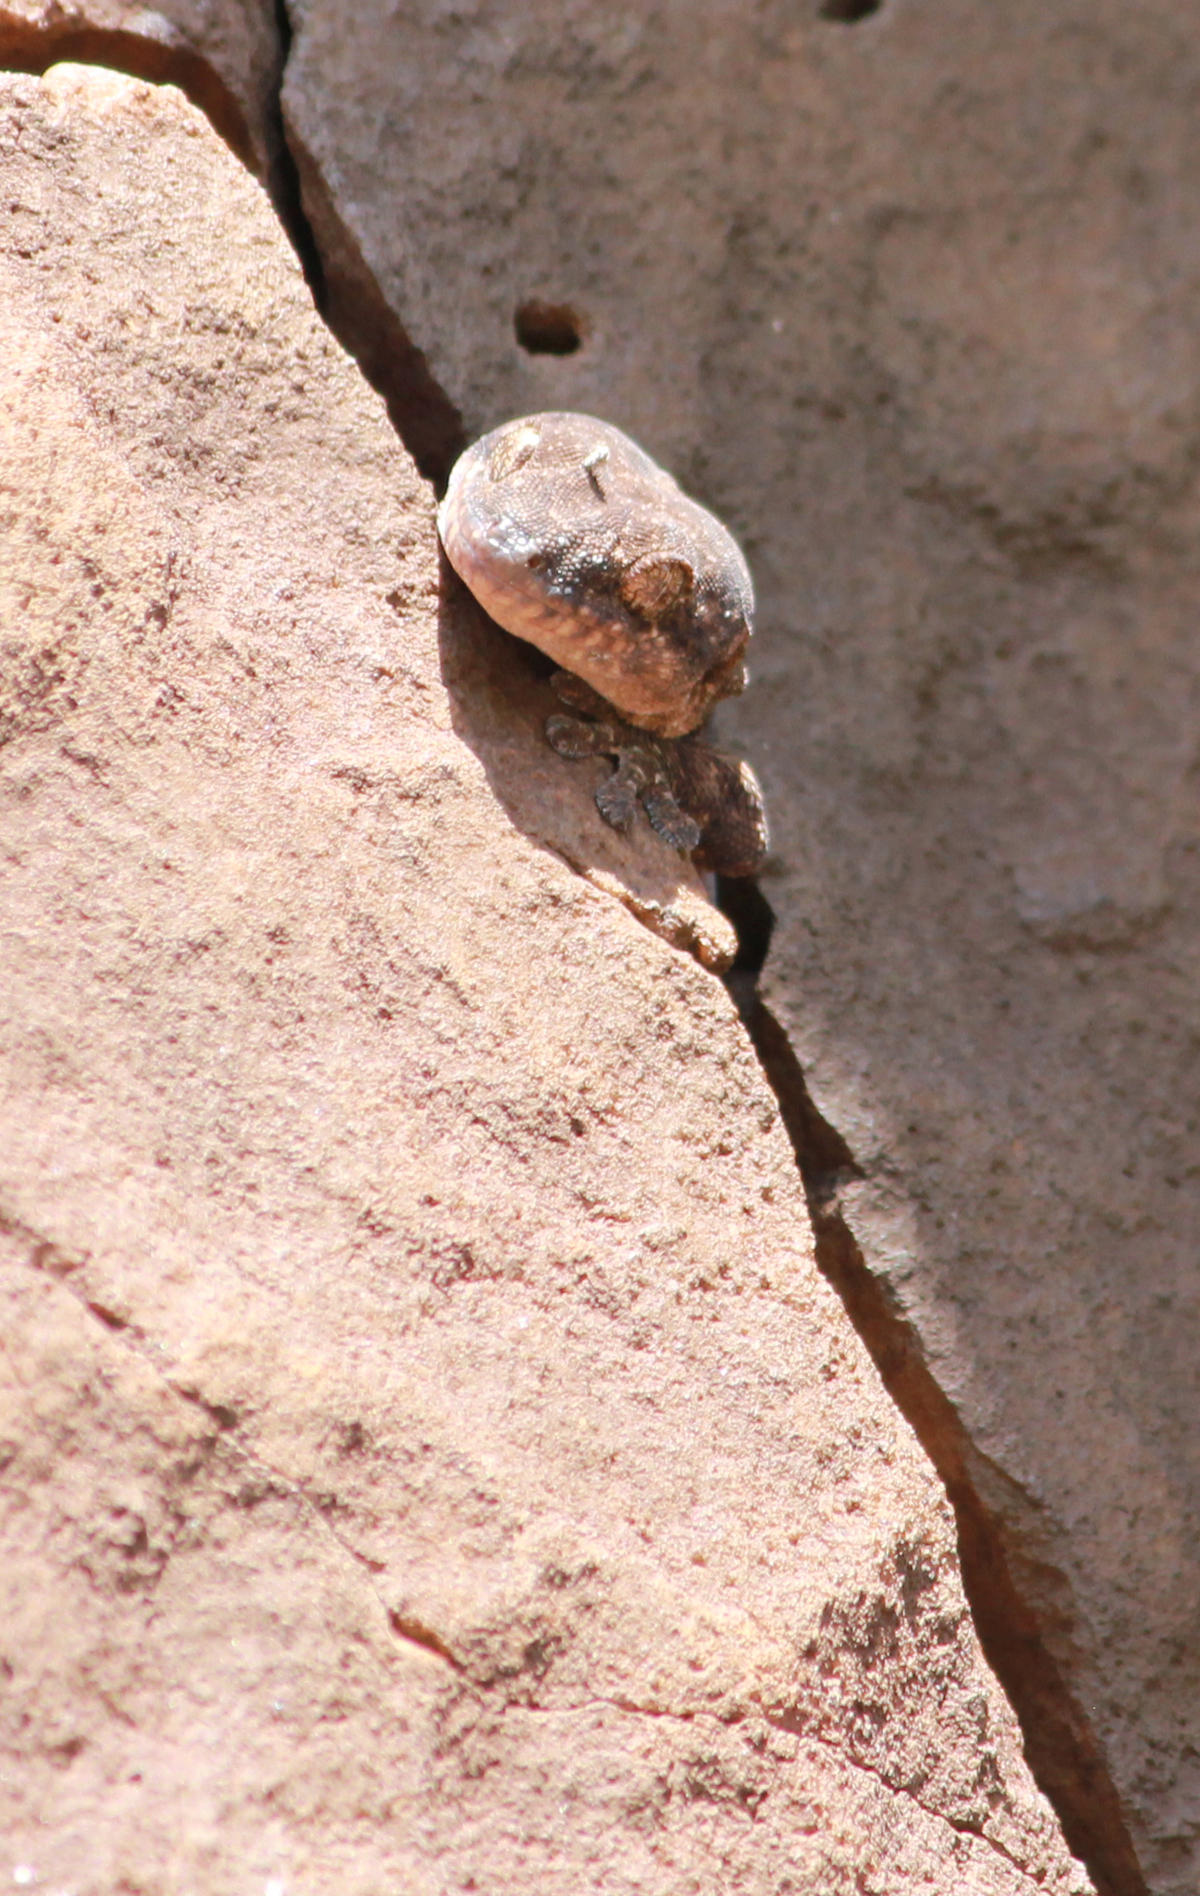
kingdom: Animalia
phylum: Chordata
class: Squamata
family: Gekkonidae
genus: Homopholis
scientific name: Homopholis walbergii
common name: Wahlberg’s velvet gecko
